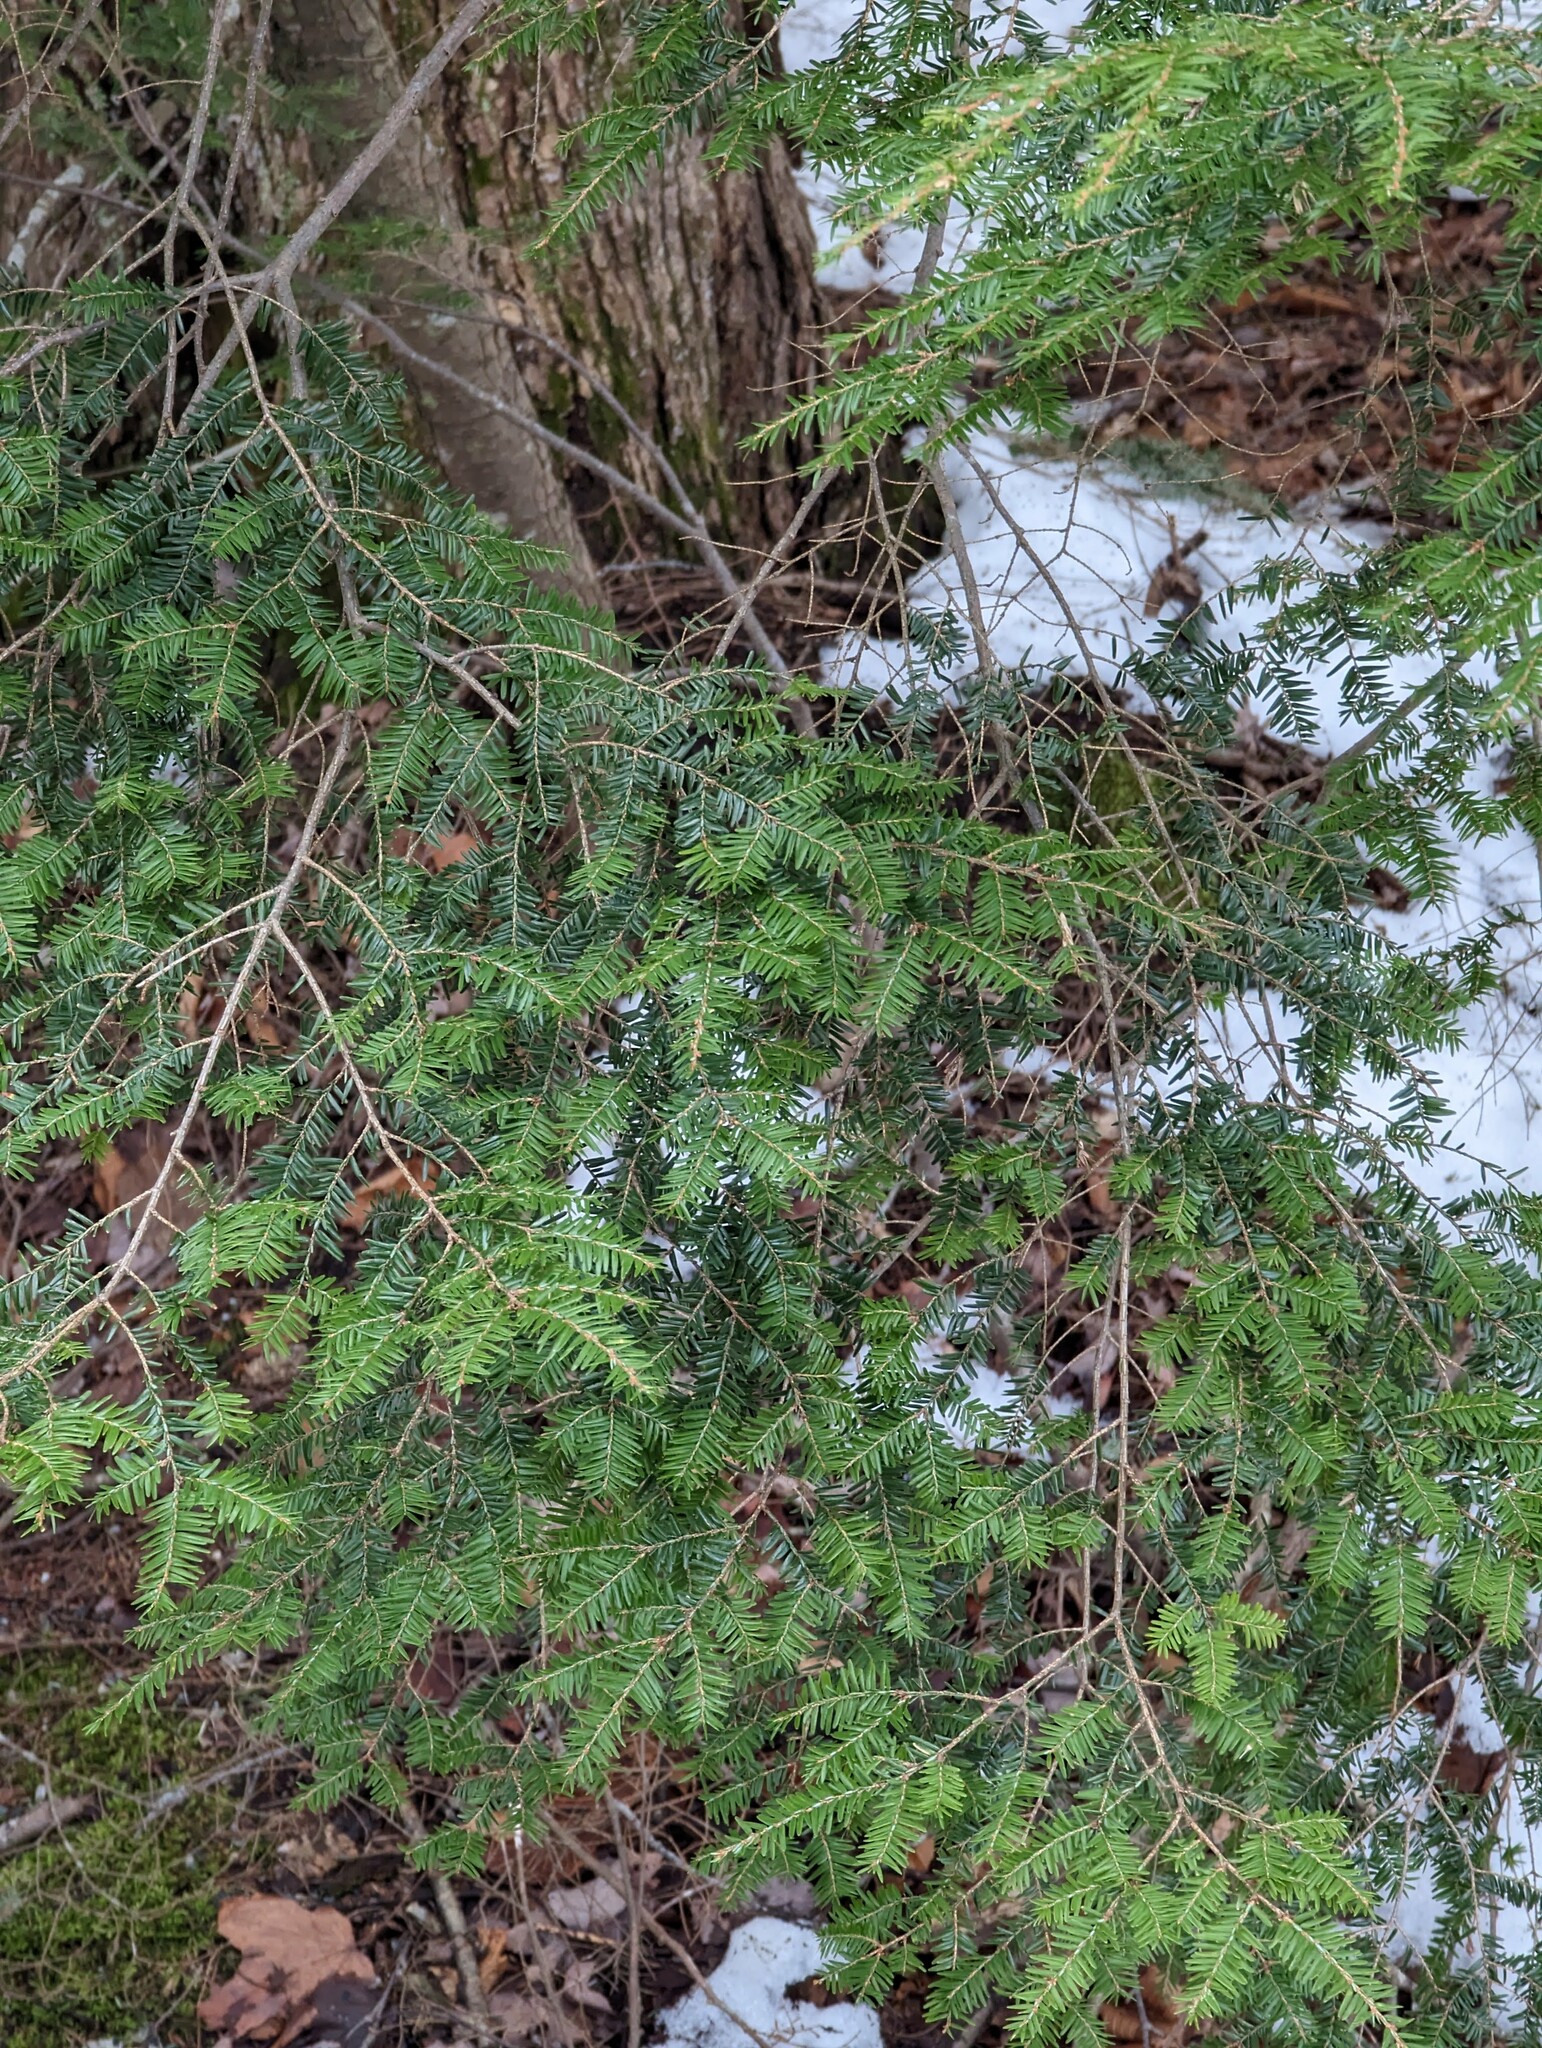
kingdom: Plantae
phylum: Tracheophyta
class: Pinopsida
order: Pinales
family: Pinaceae
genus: Tsuga
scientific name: Tsuga canadensis
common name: Eastern hemlock
